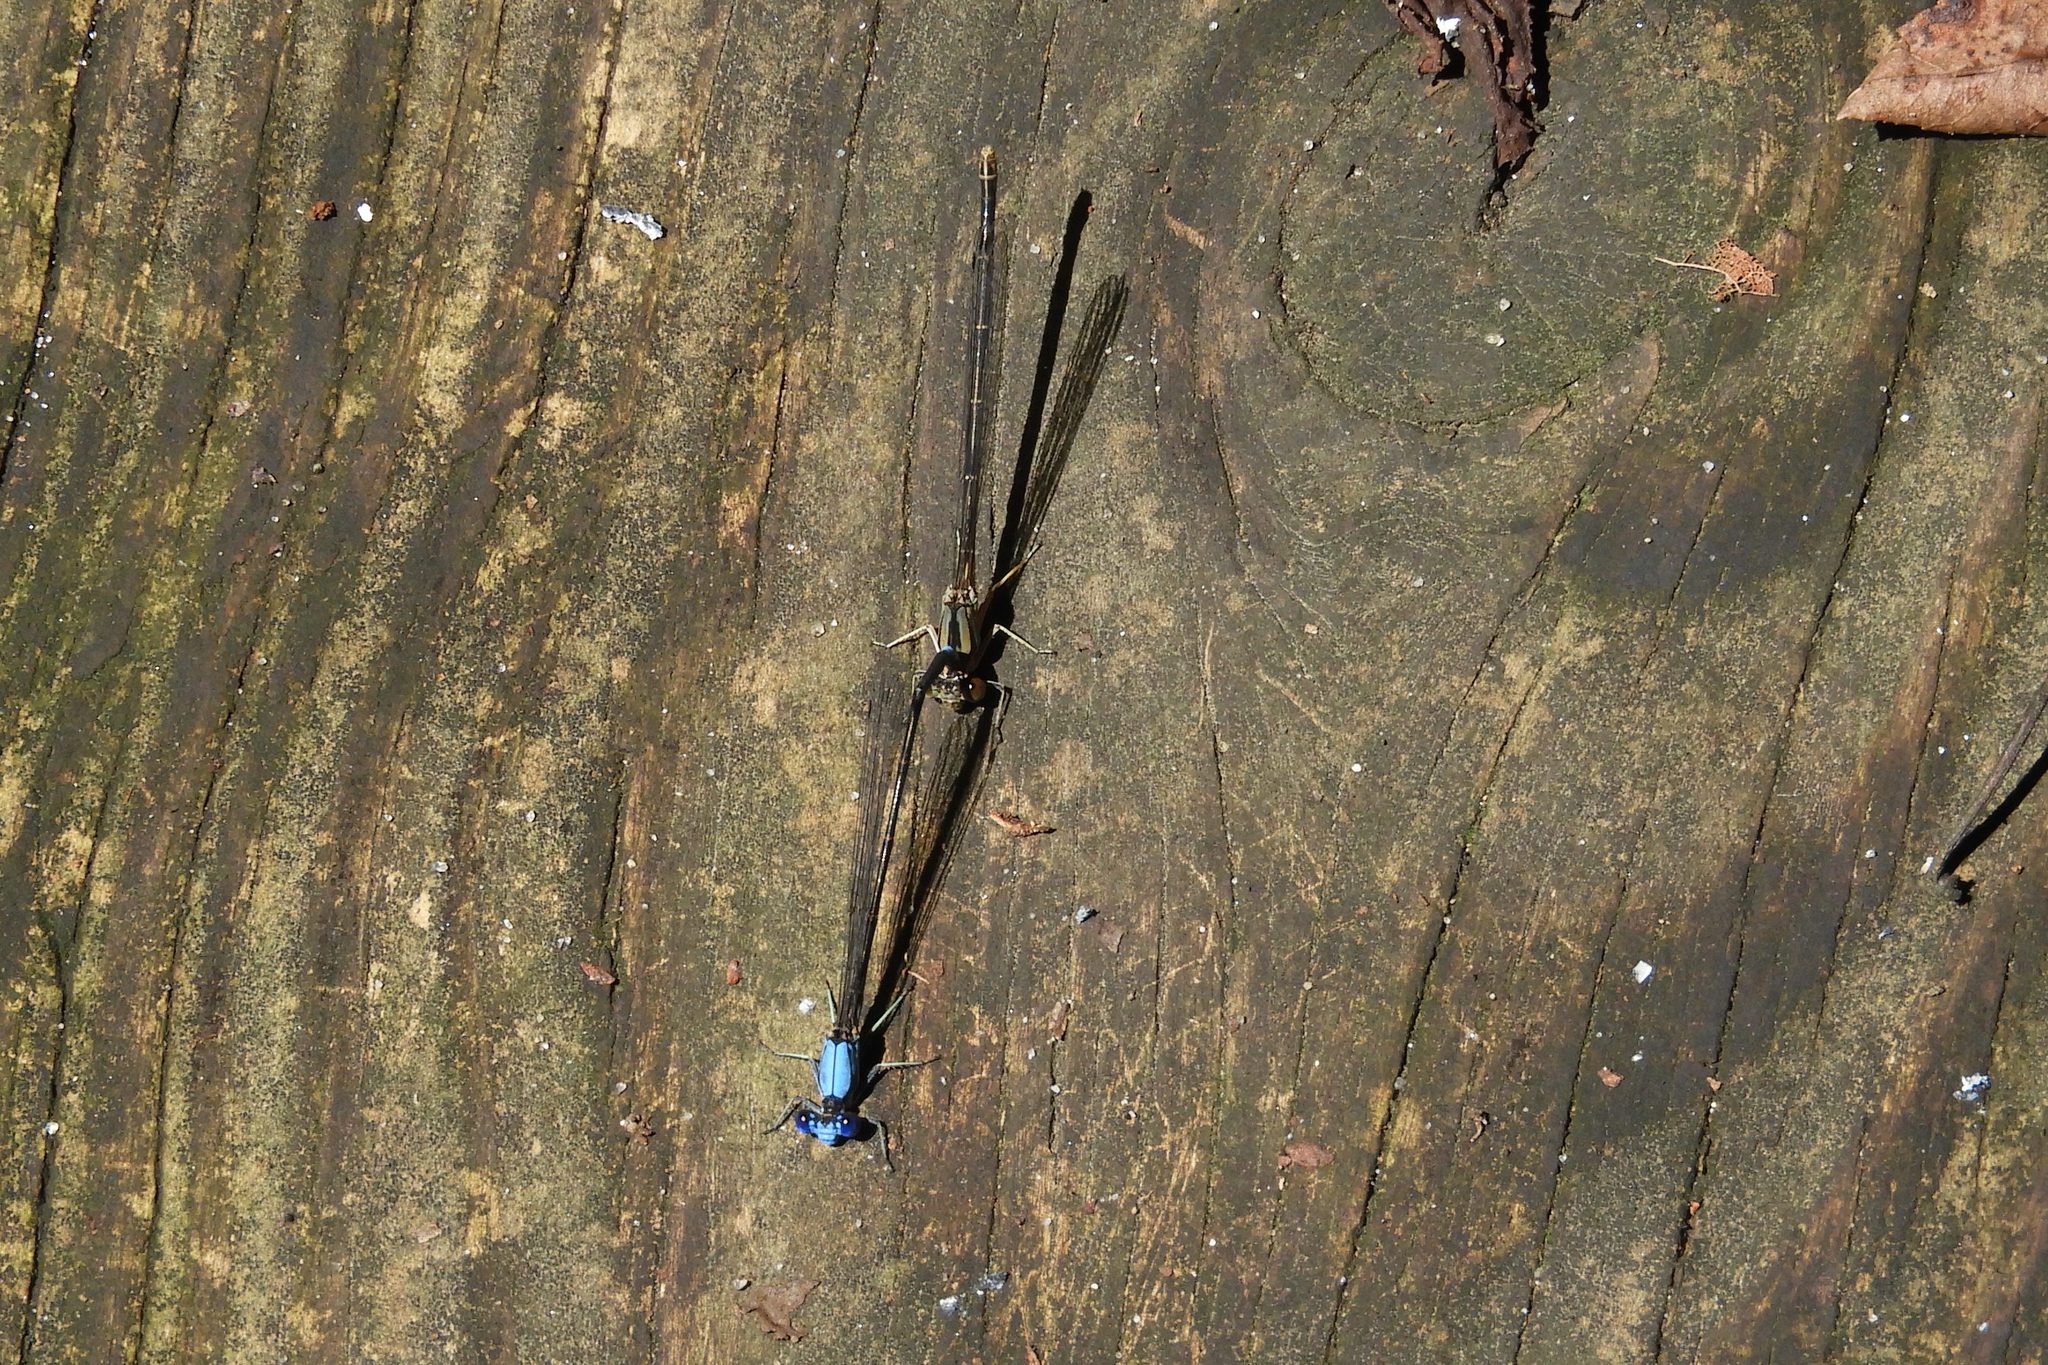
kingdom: Animalia
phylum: Arthropoda
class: Insecta
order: Odonata
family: Coenagrionidae
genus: Argia
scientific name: Argia apicalis
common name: Blue-fronted dancer
